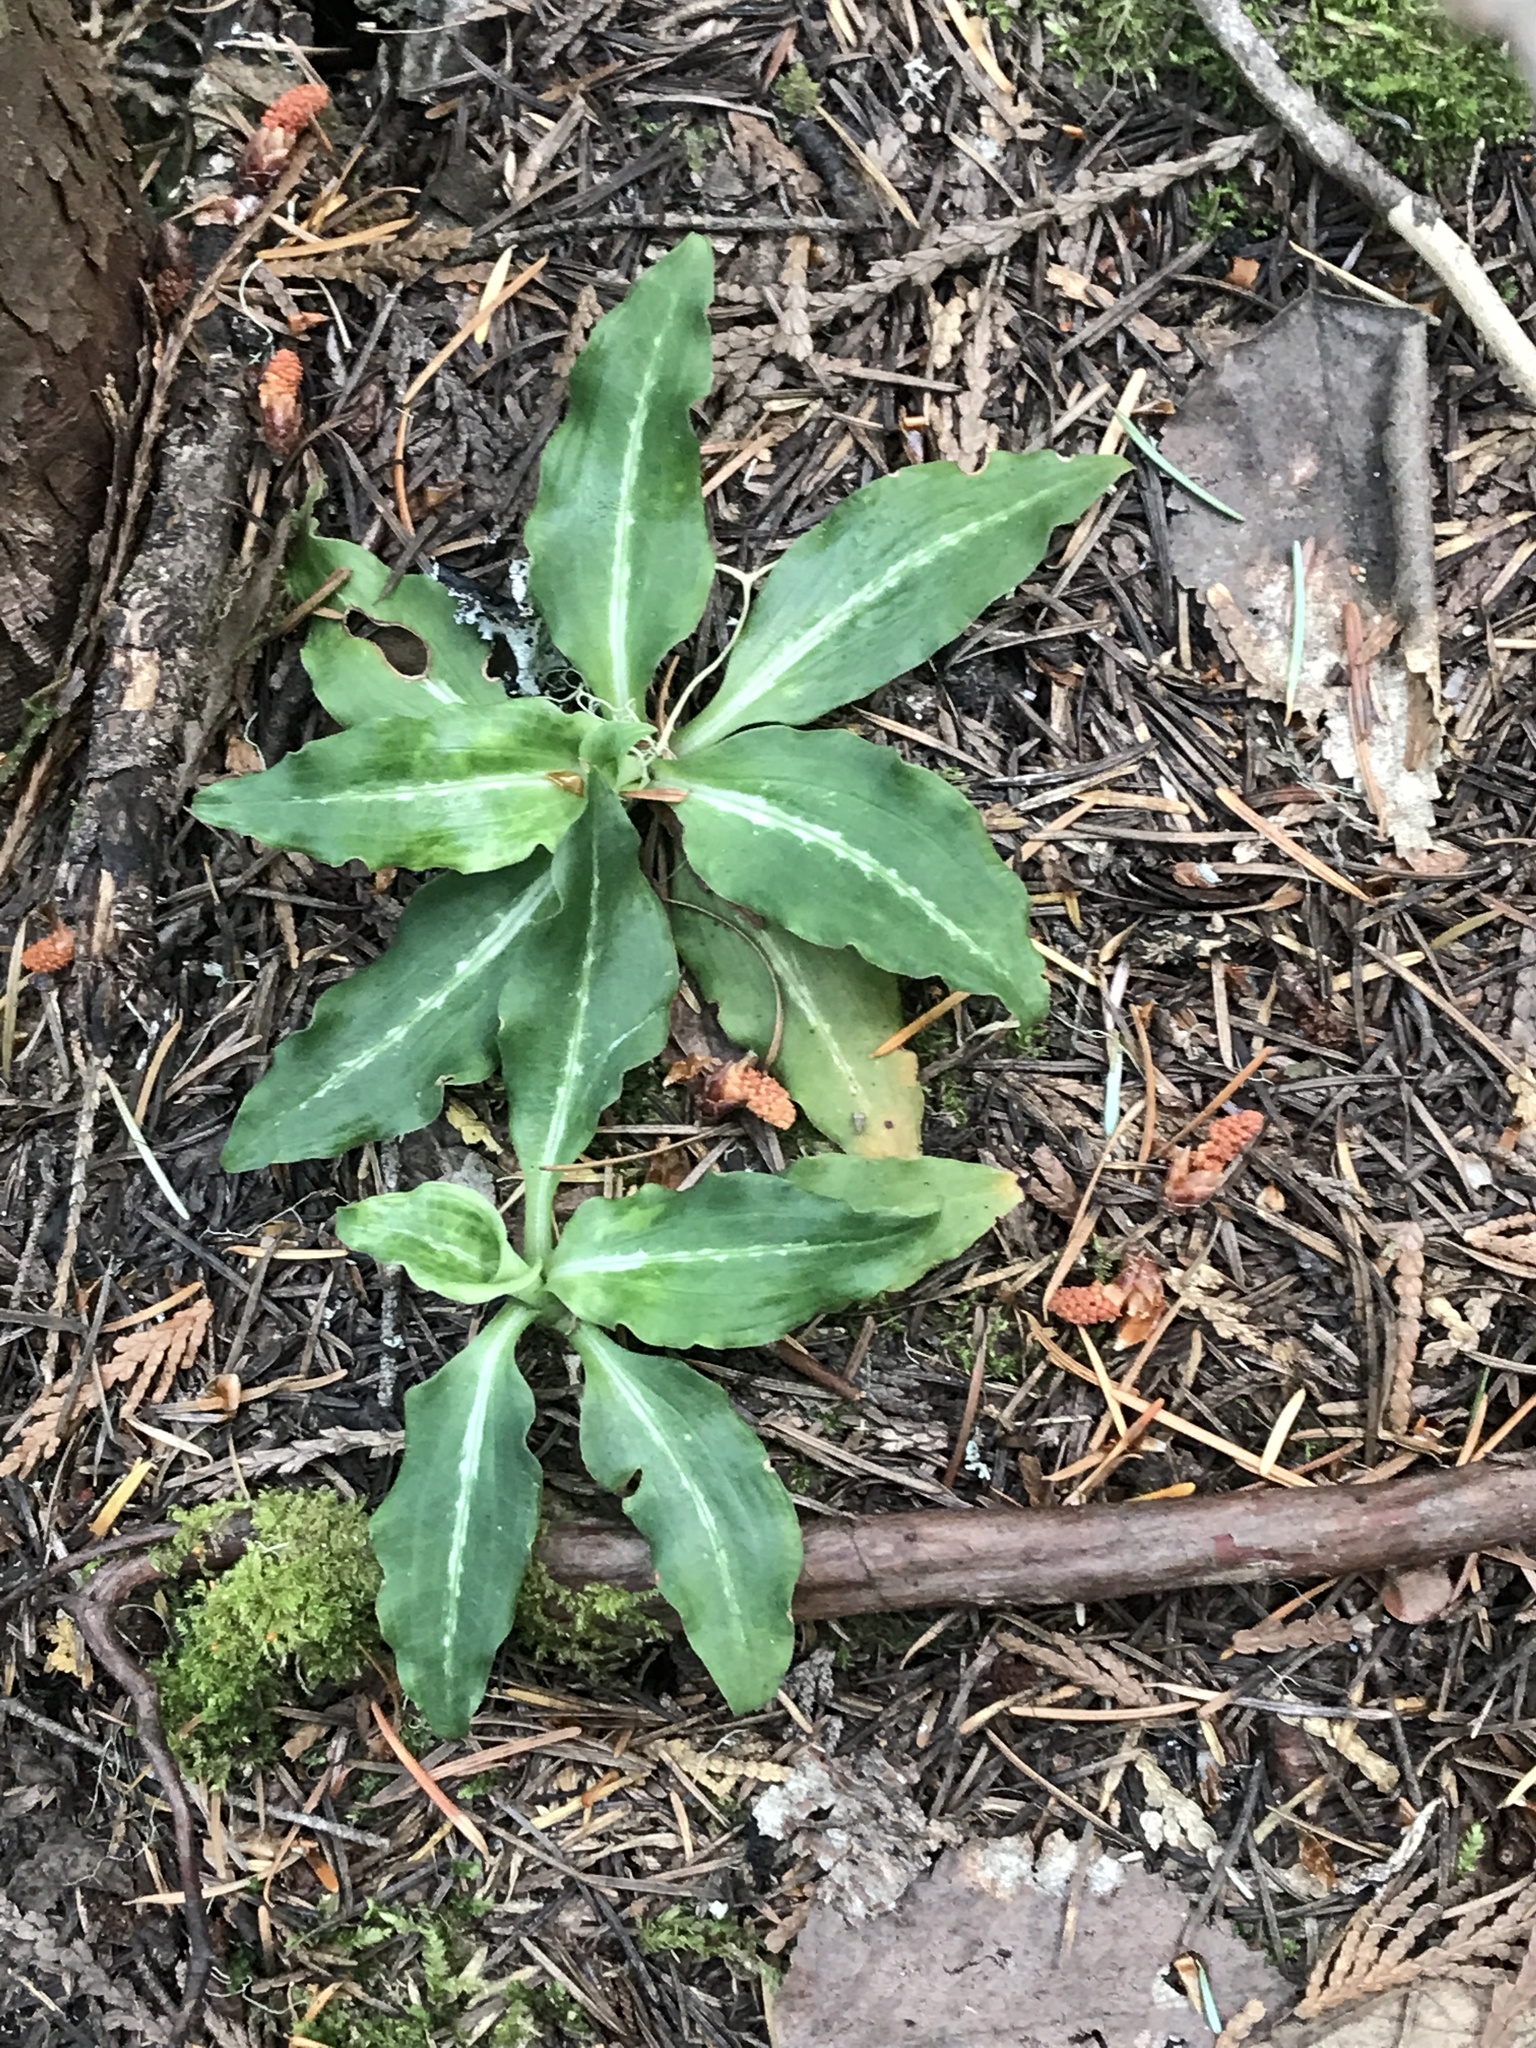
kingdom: Plantae
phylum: Tracheophyta
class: Liliopsida
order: Asparagales
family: Orchidaceae
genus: Goodyera
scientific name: Goodyera oblongifolia
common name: Giant rattlesnake-plantain
